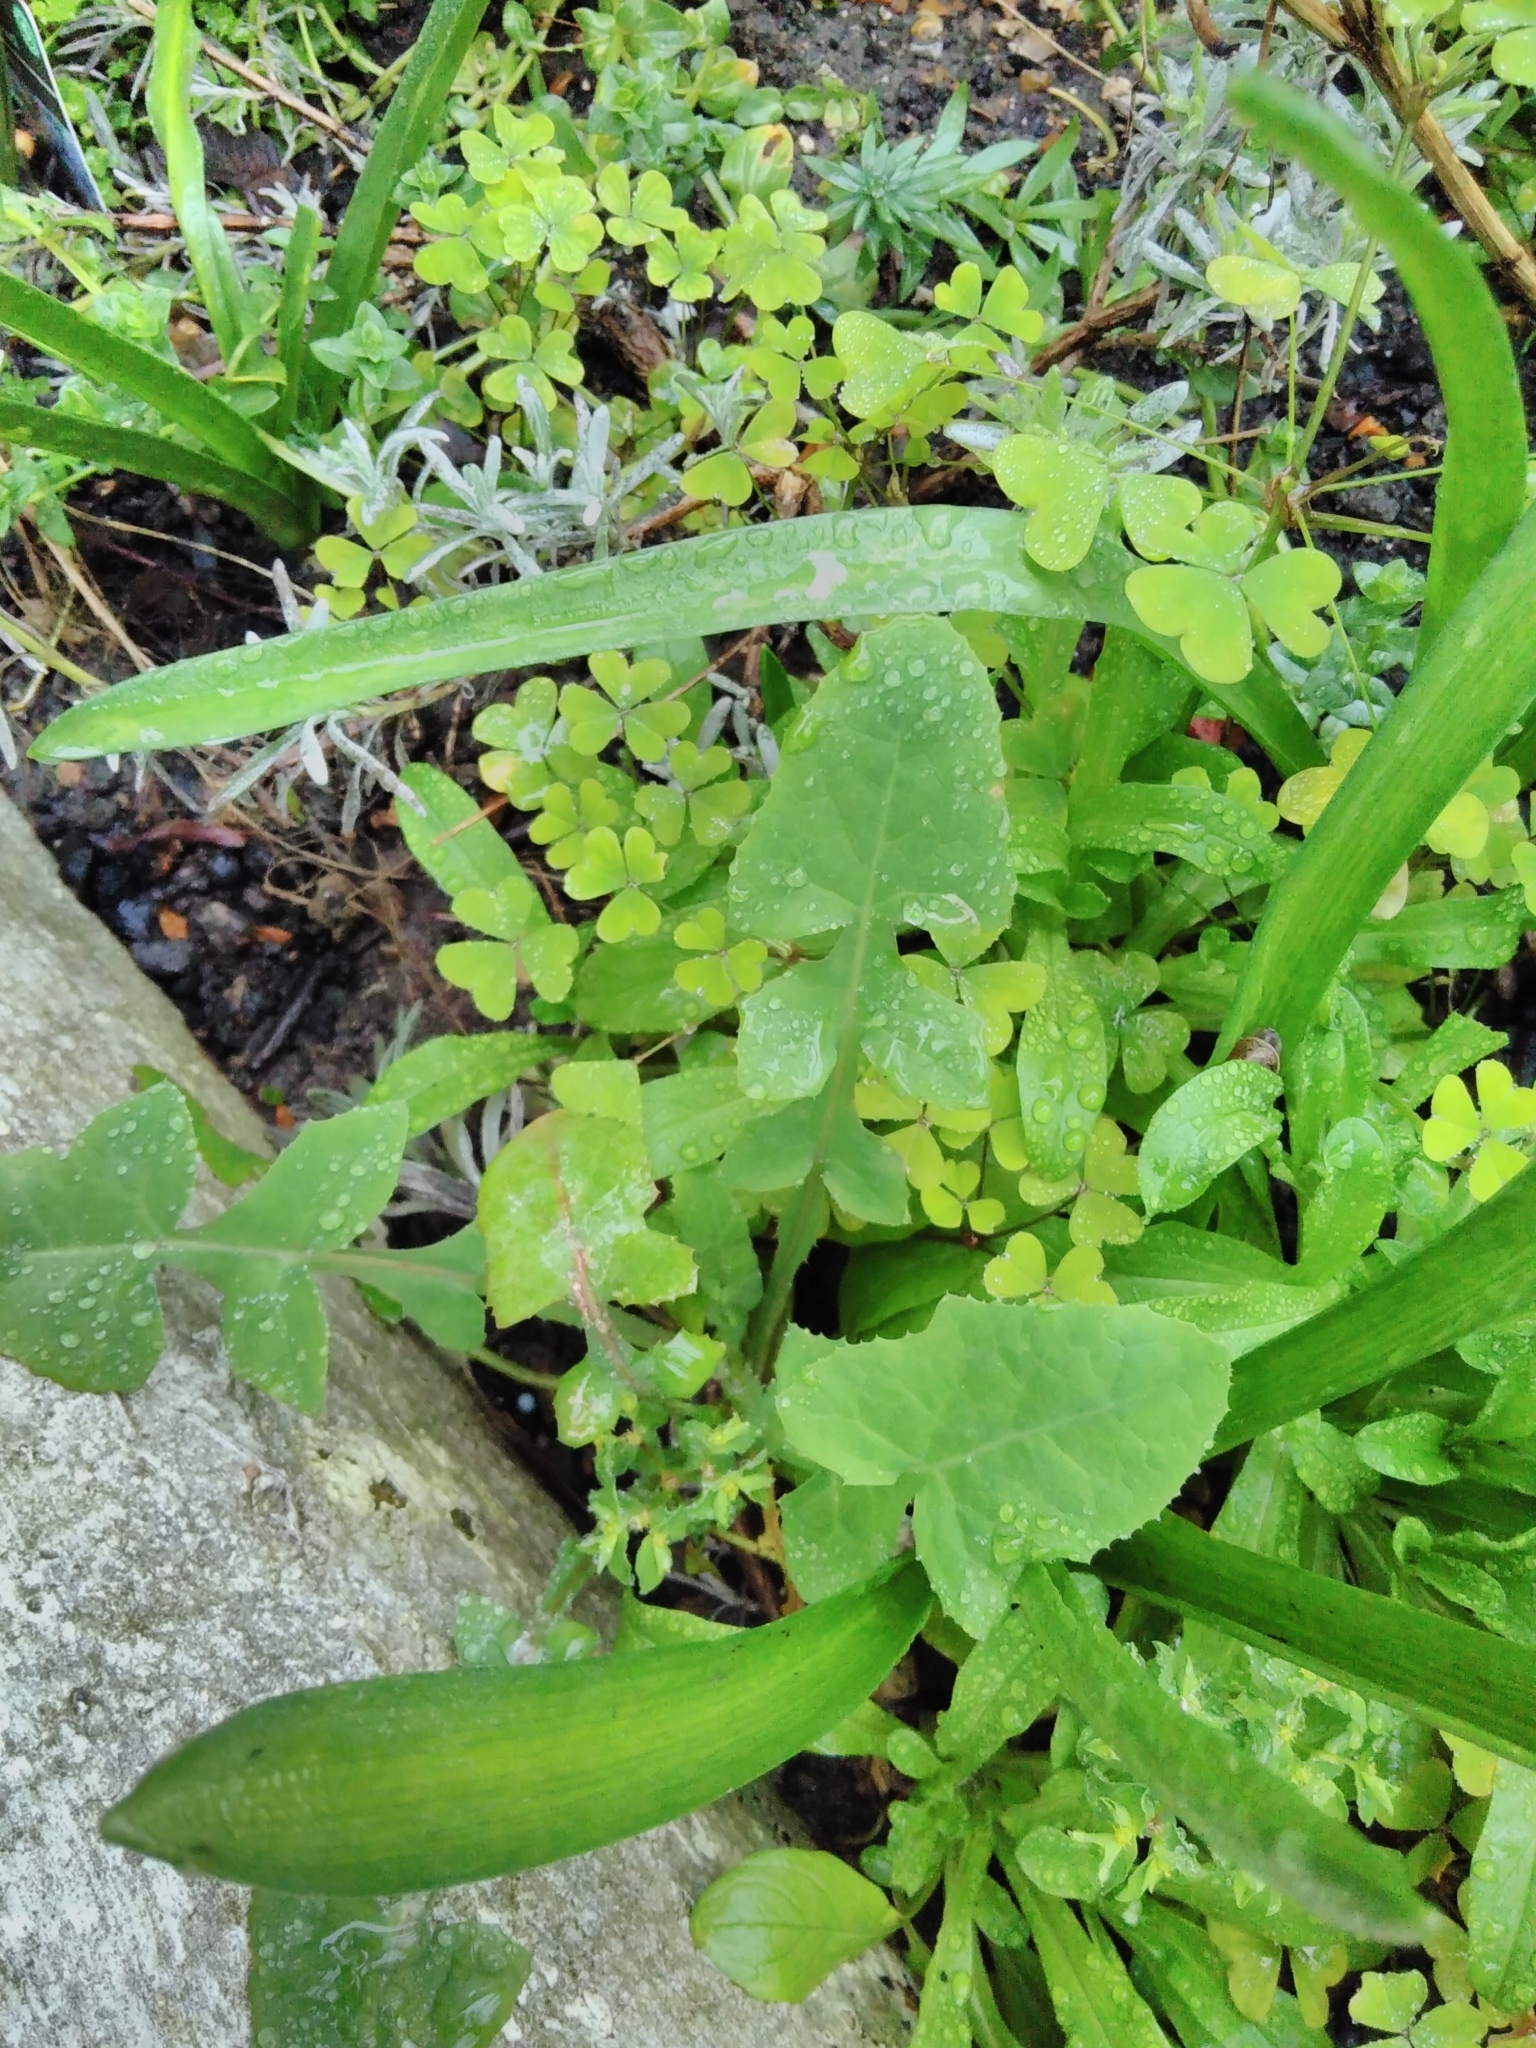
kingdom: Plantae
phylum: Tracheophyta
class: Magnoliopsida
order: Asterales
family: Asteraceae
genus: Sonchus
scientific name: Sonchus oleraceus
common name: Common sowthistle
